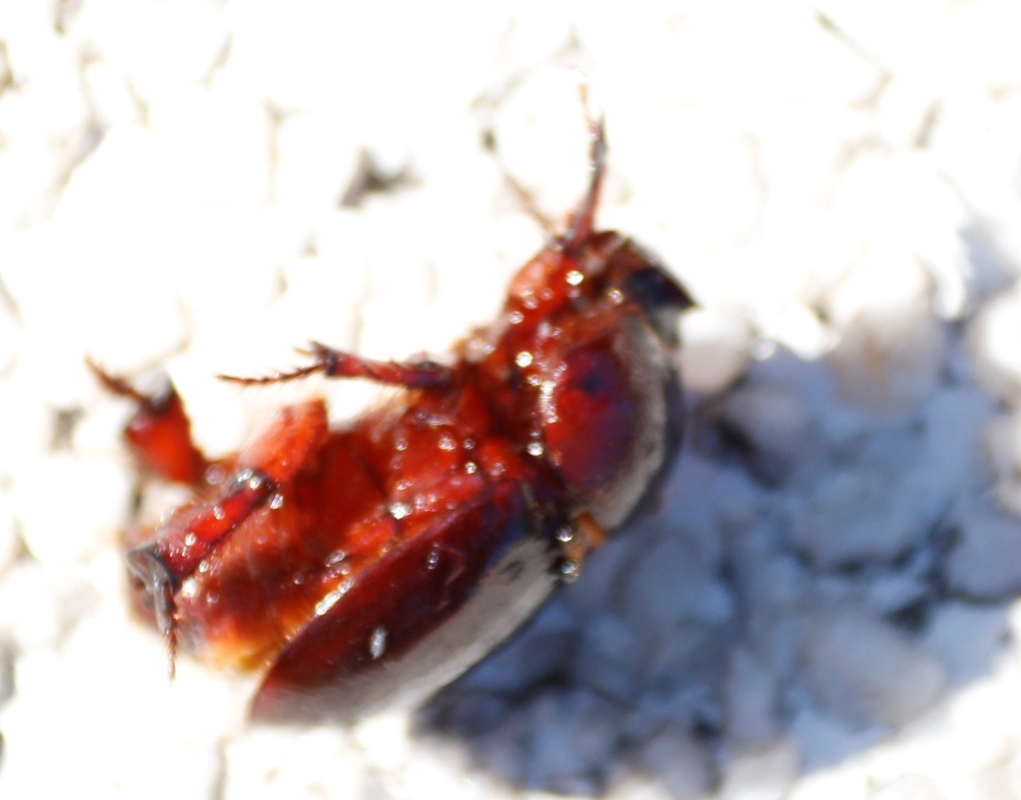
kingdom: Animalia
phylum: Arthropoda
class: Insecta
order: Coleoptera
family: Scarabaeidae
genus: Temnorhynchus
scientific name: Temnorhynchus retusus
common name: Plate-faced beetle
